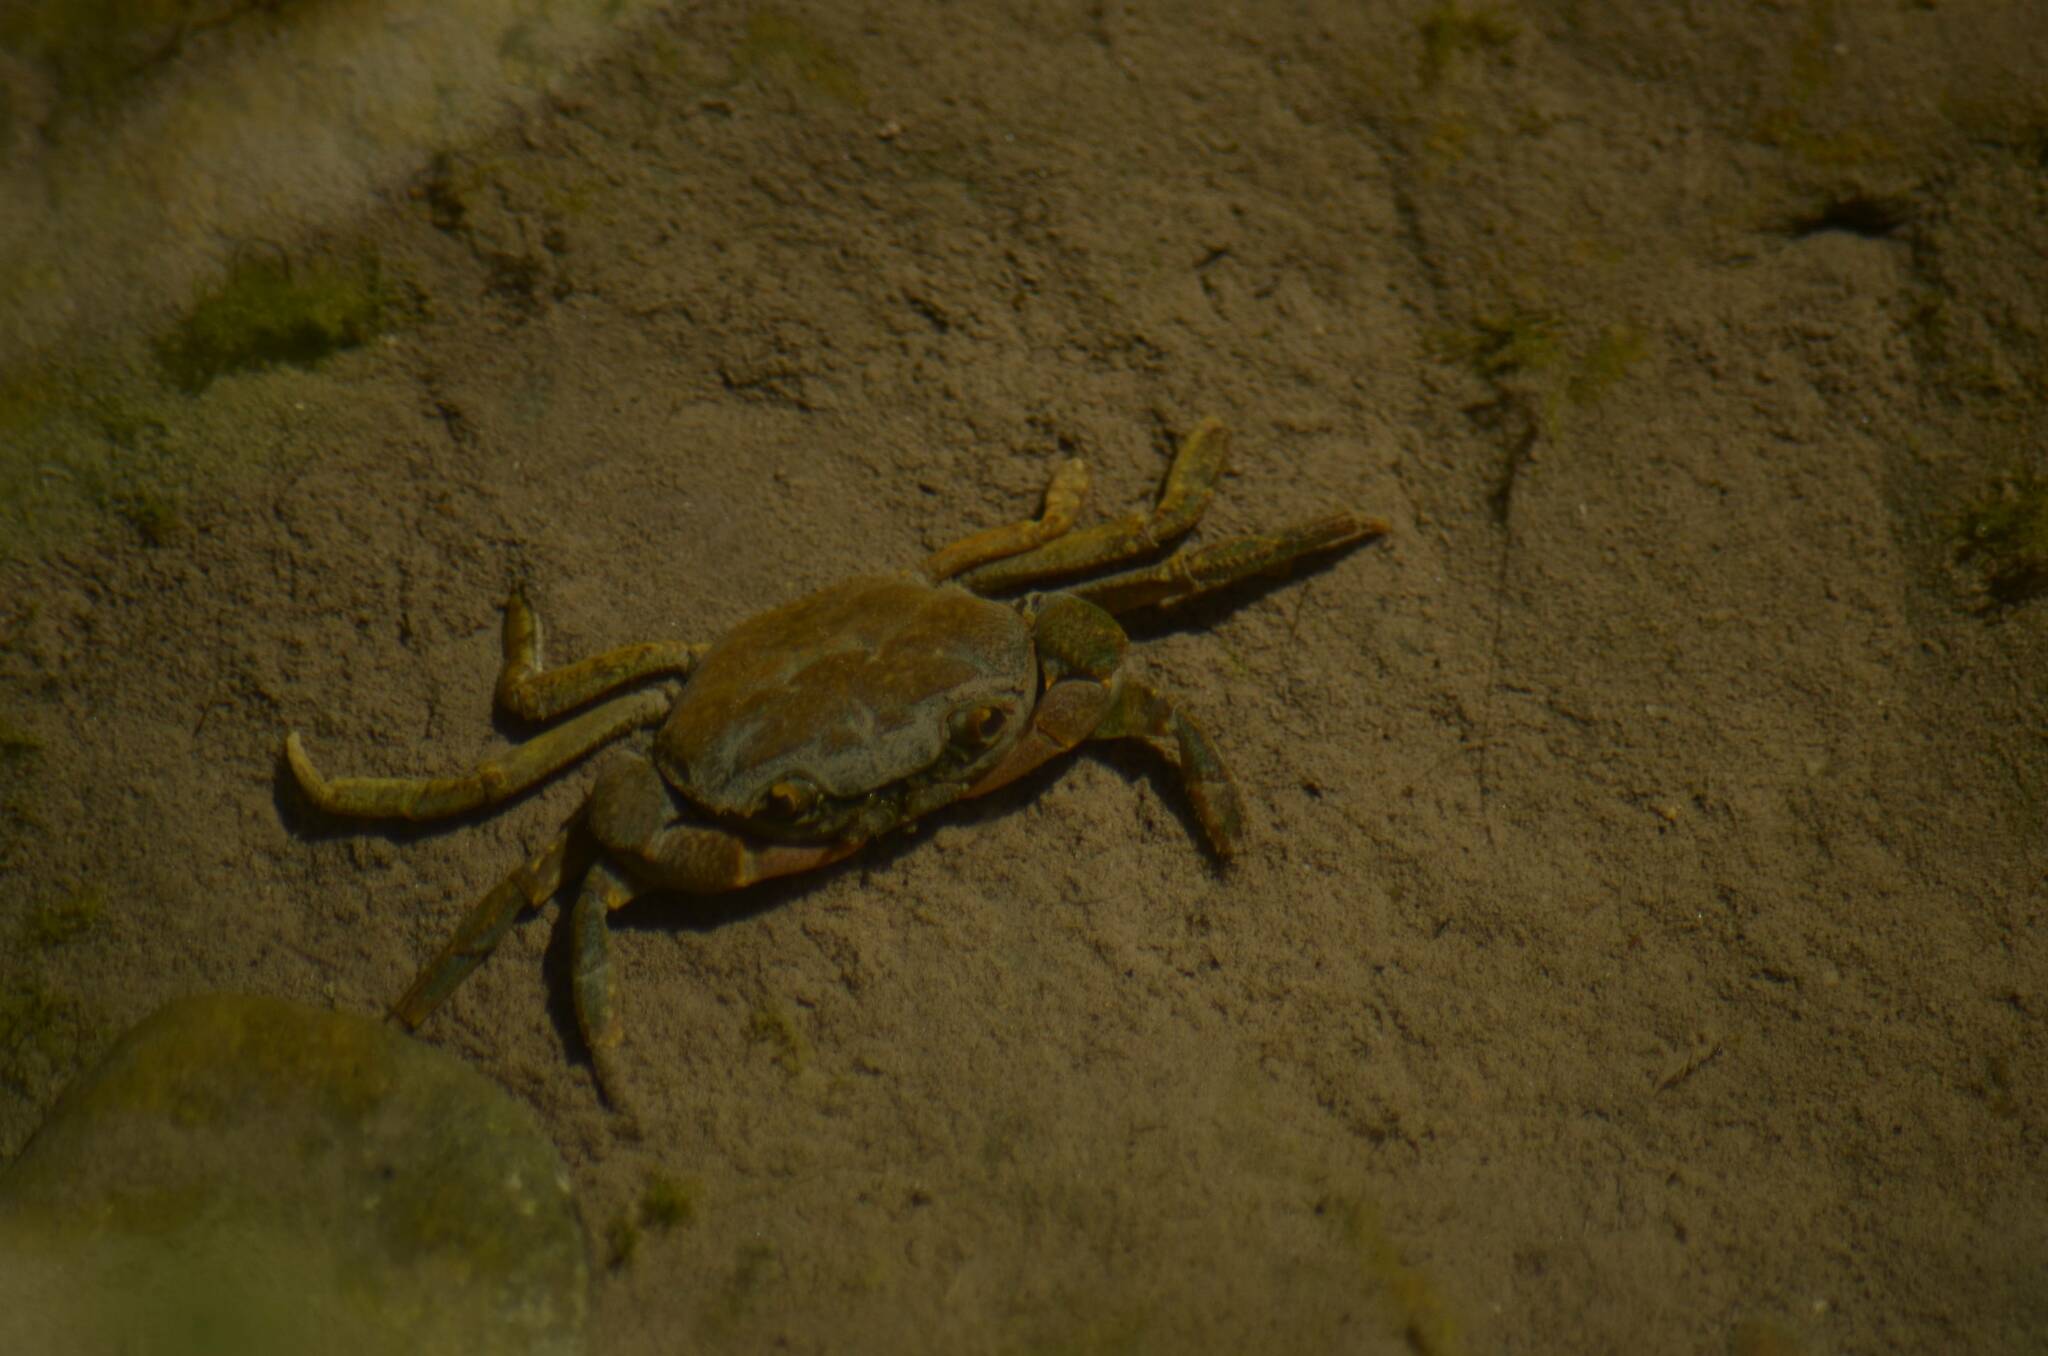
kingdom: Animalia
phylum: Arthropoda
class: Malacostraca
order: Decapoda
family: Potamidae
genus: Potamon
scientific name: Potamon algeriense
